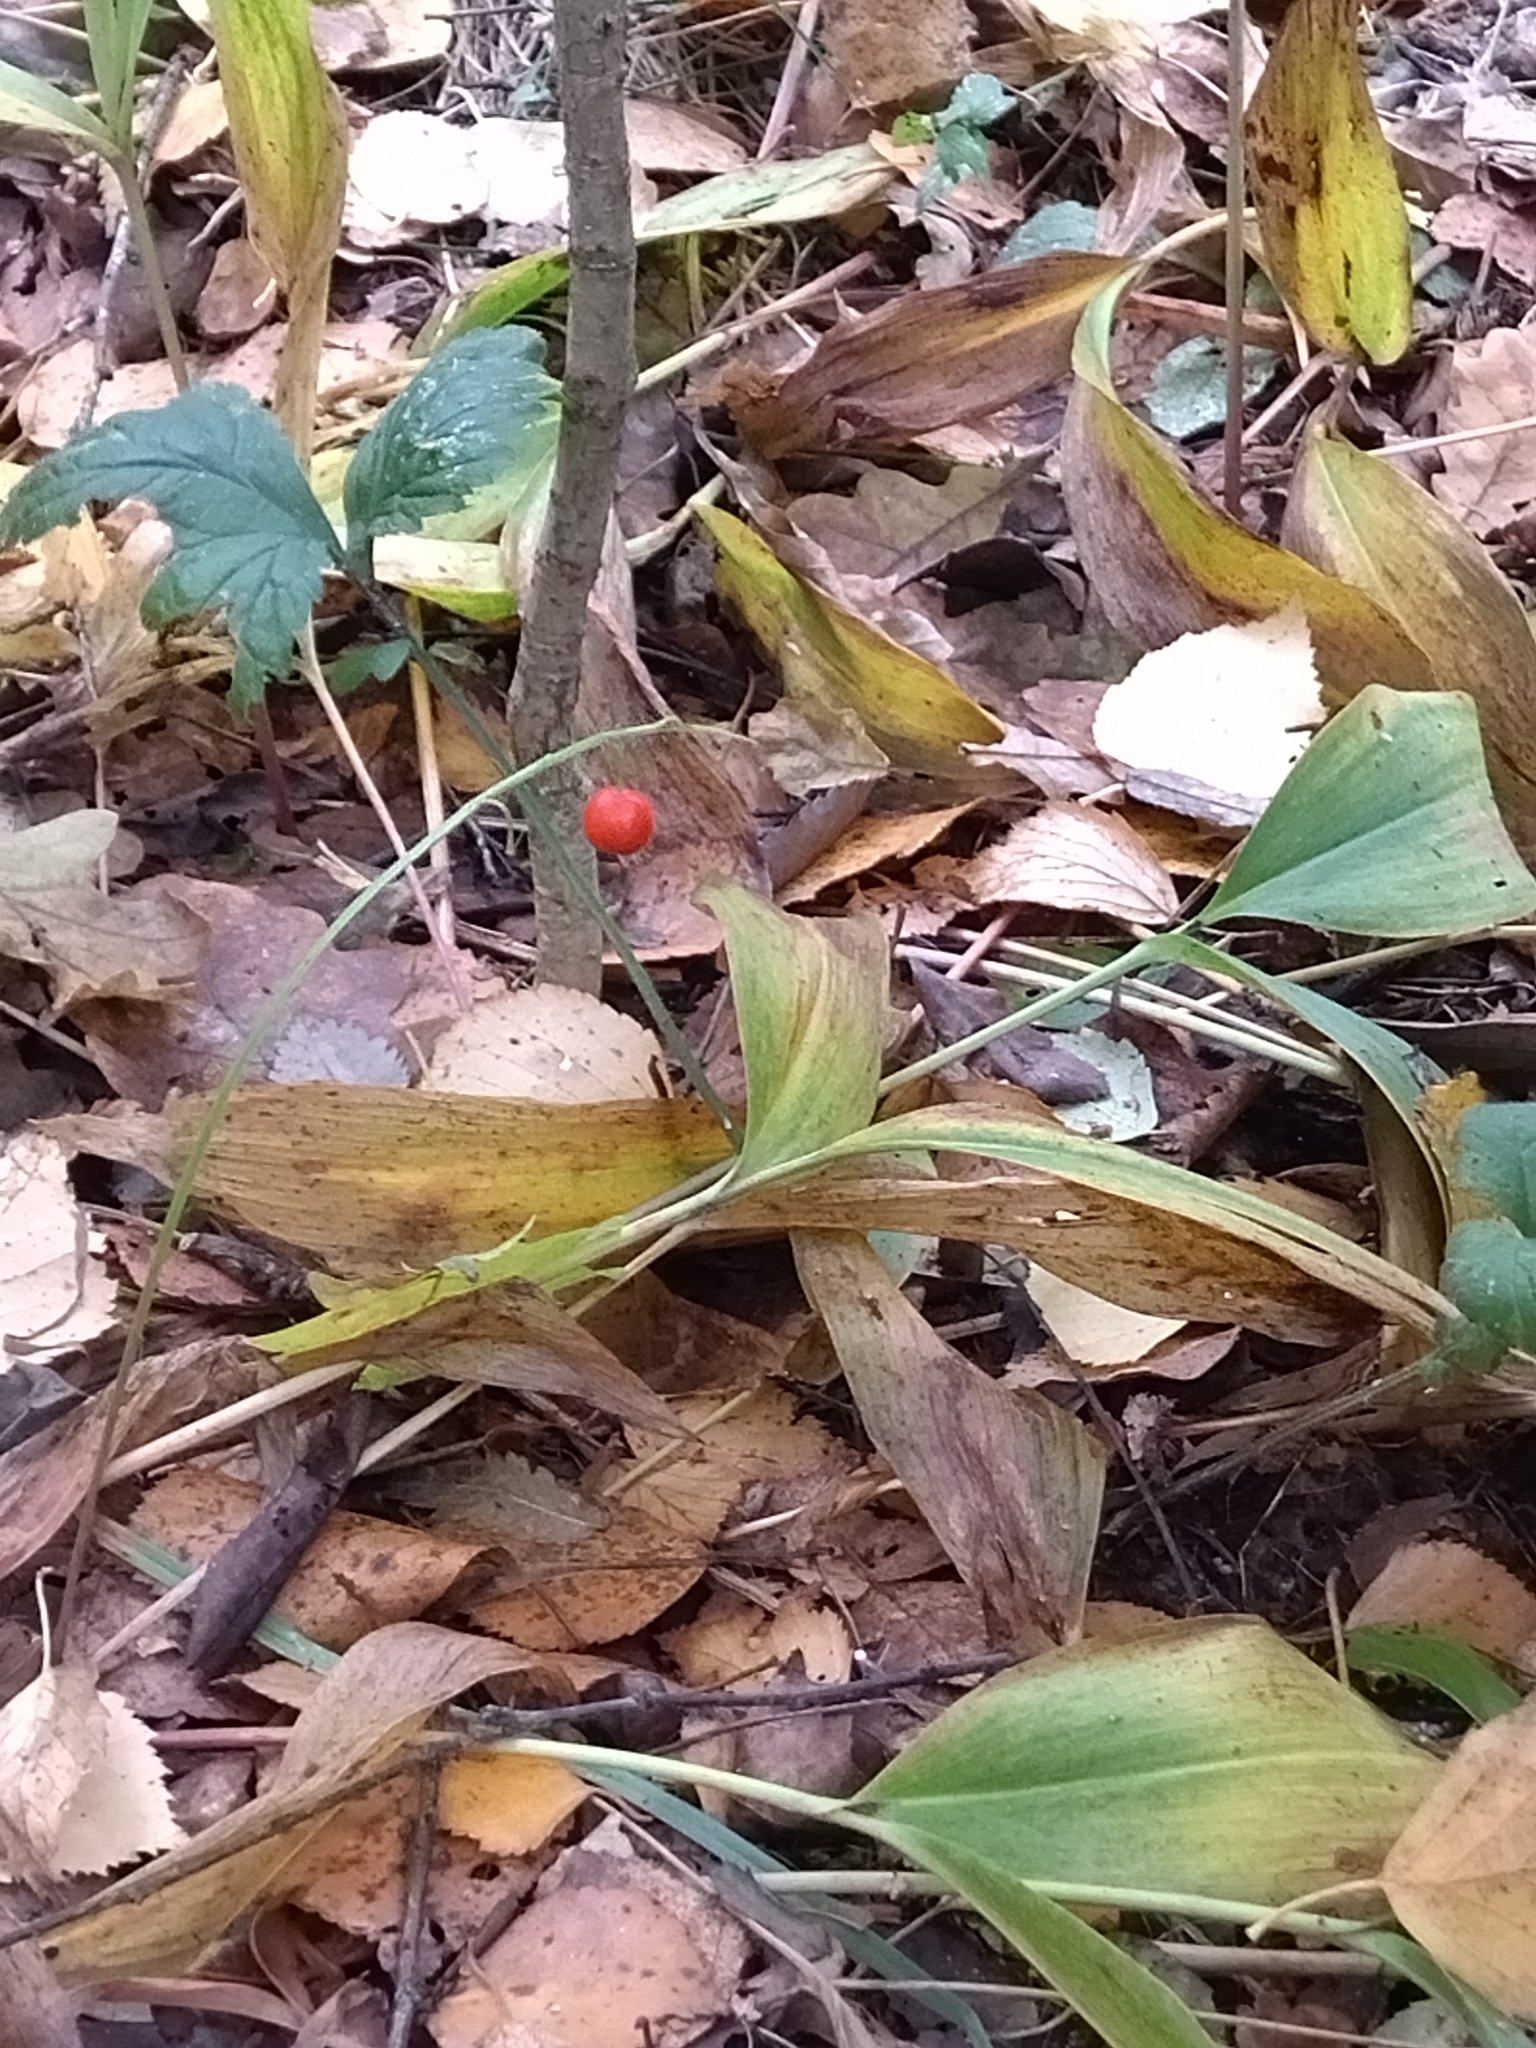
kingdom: Plantae
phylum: Tracheophyta
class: Liliopsida
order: Asparagales
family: Asparagaceae
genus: Convallaria
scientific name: Convallaria majalis
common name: Lily-of-the-valley
